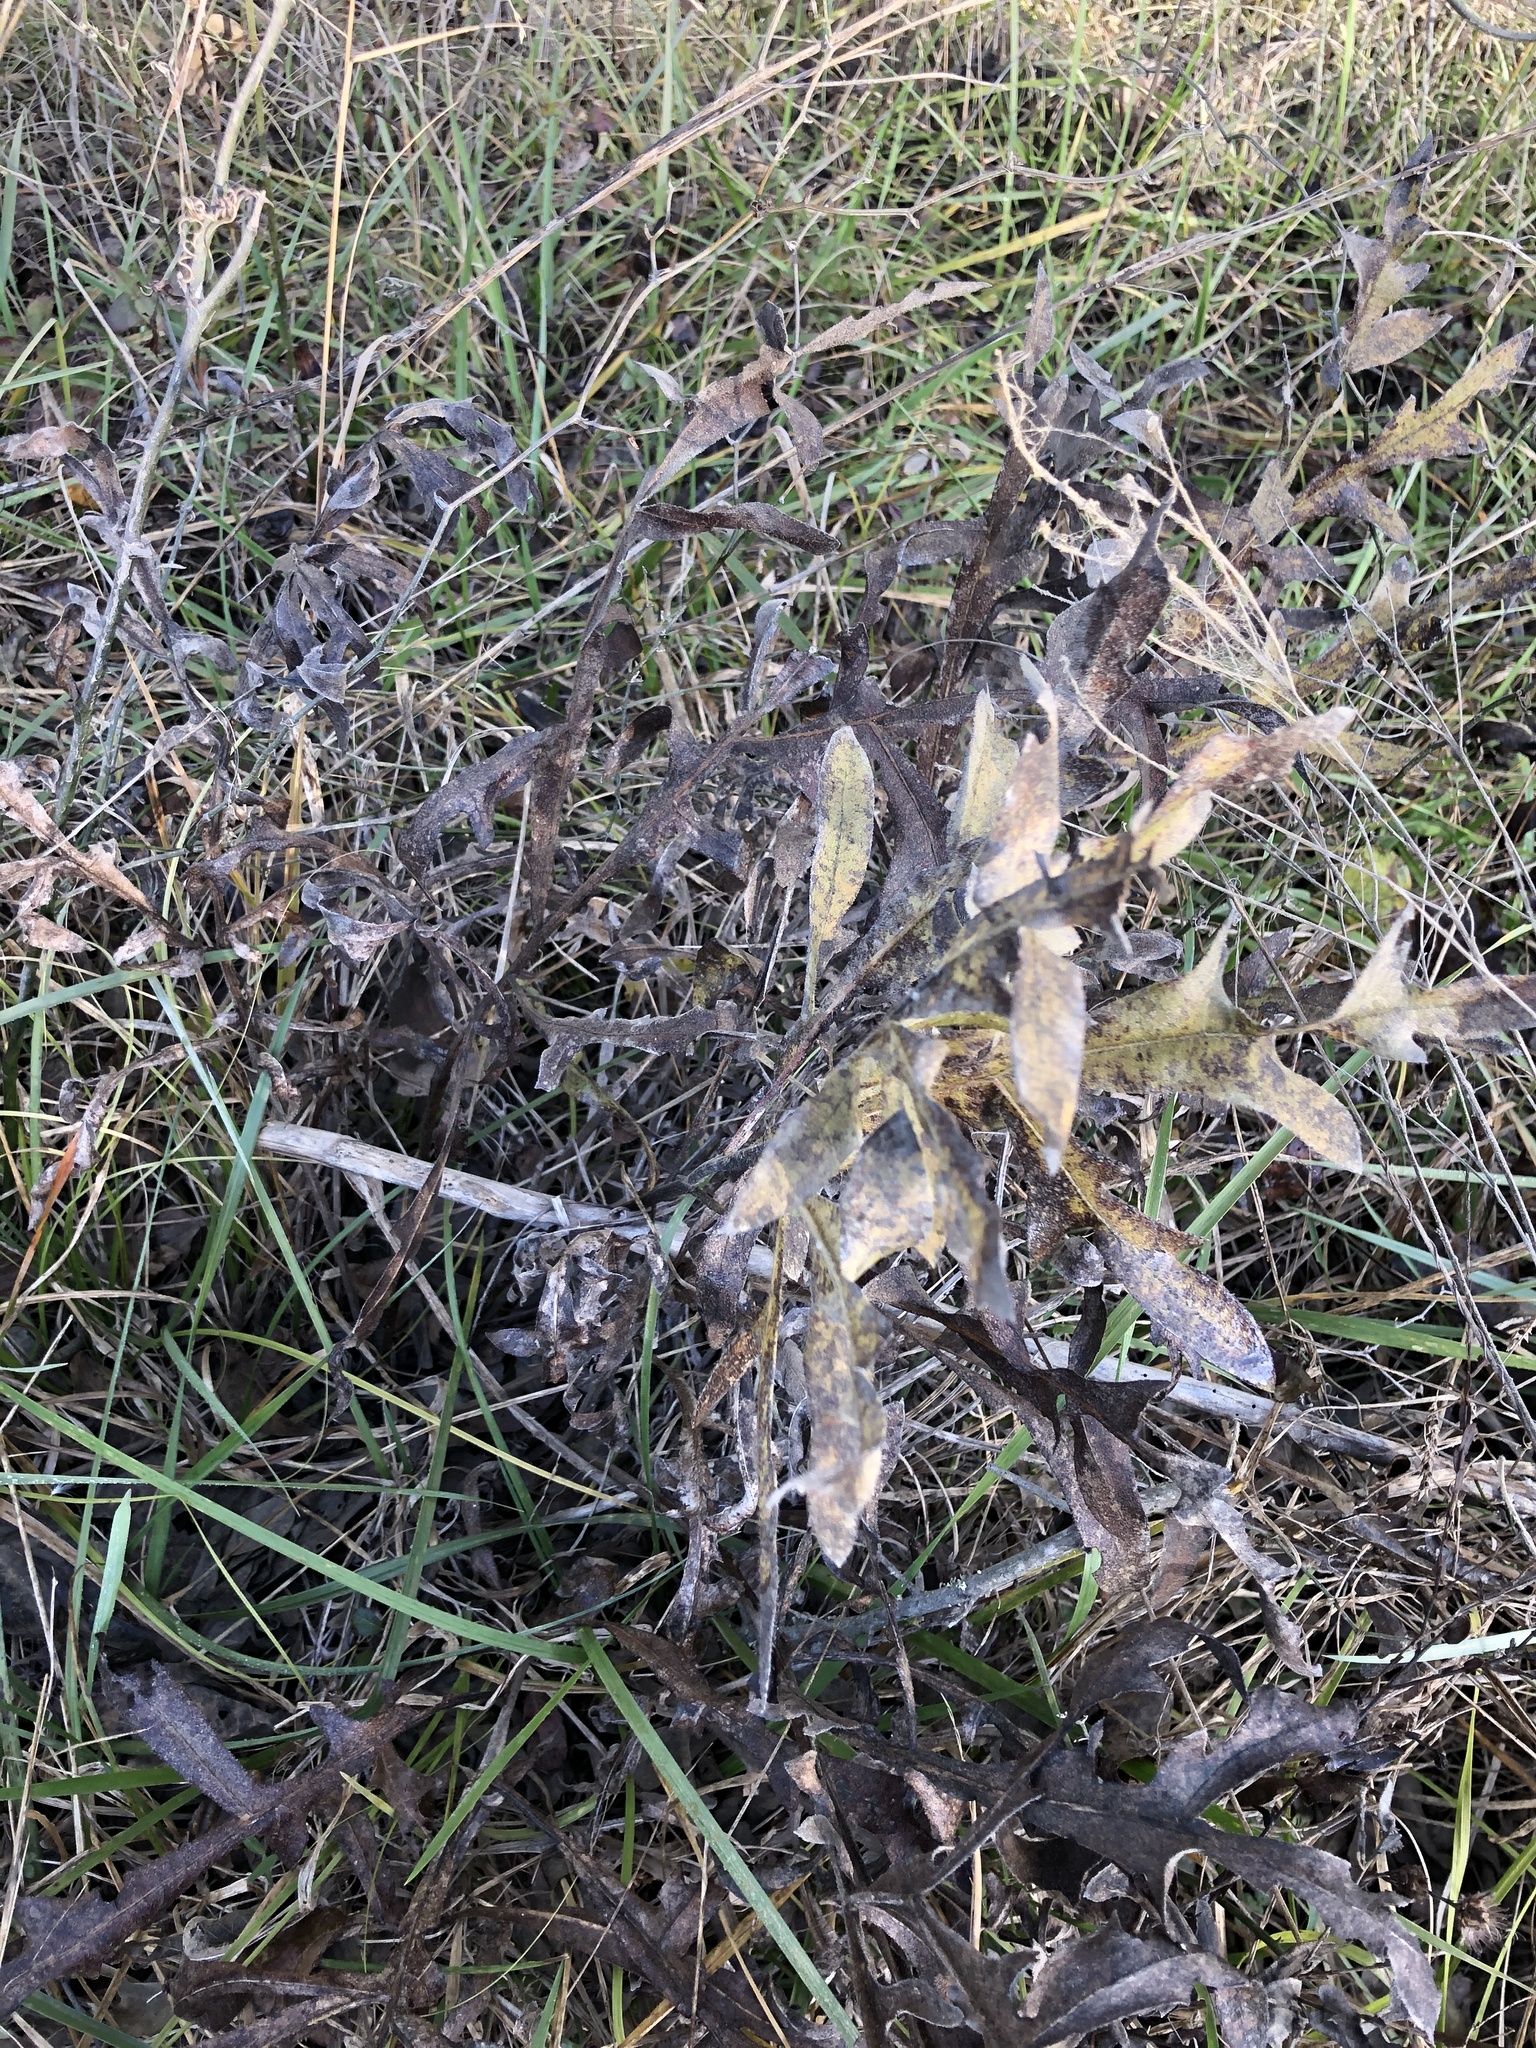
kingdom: Plantae
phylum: Tracheophyta
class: Magnoliopsida
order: Asterales
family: Asteraceae
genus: Silphium
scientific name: Silphium laciniatum
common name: Polarplant
